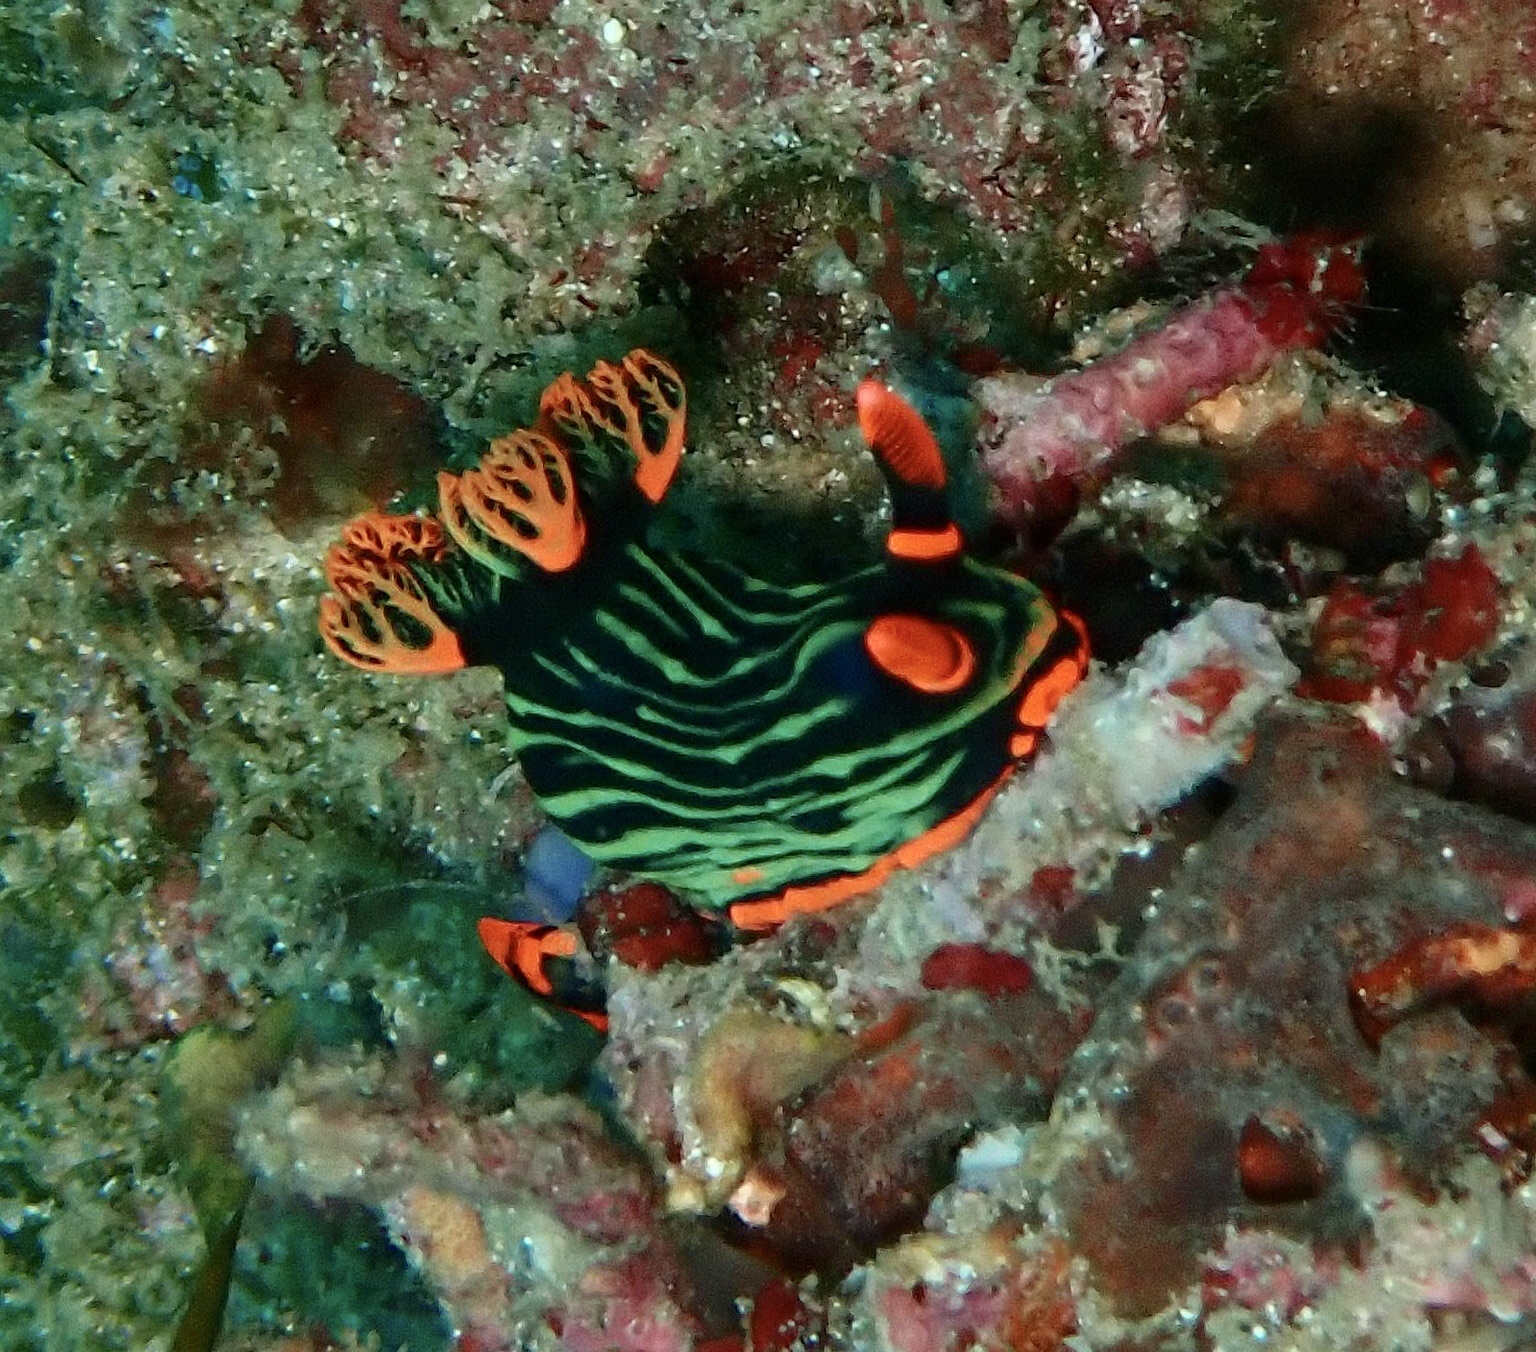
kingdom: Animalia
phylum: Mollusca
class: Gastropoda
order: Nudibranchia
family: Polyceridae
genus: Nembrotha
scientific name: Nembrotha kubaryana
